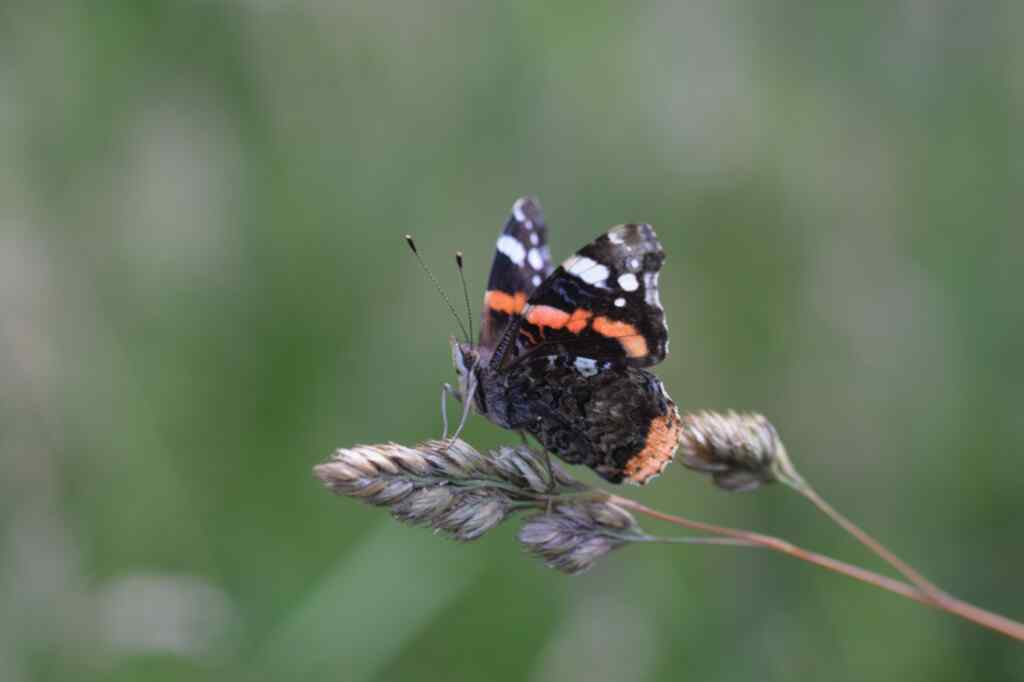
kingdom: Animalia
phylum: Arthropoda
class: Insecta
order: Lepidoptera
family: Nymphalidae
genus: Vanessa
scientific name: Vanessa atalanta
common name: Red admiral
